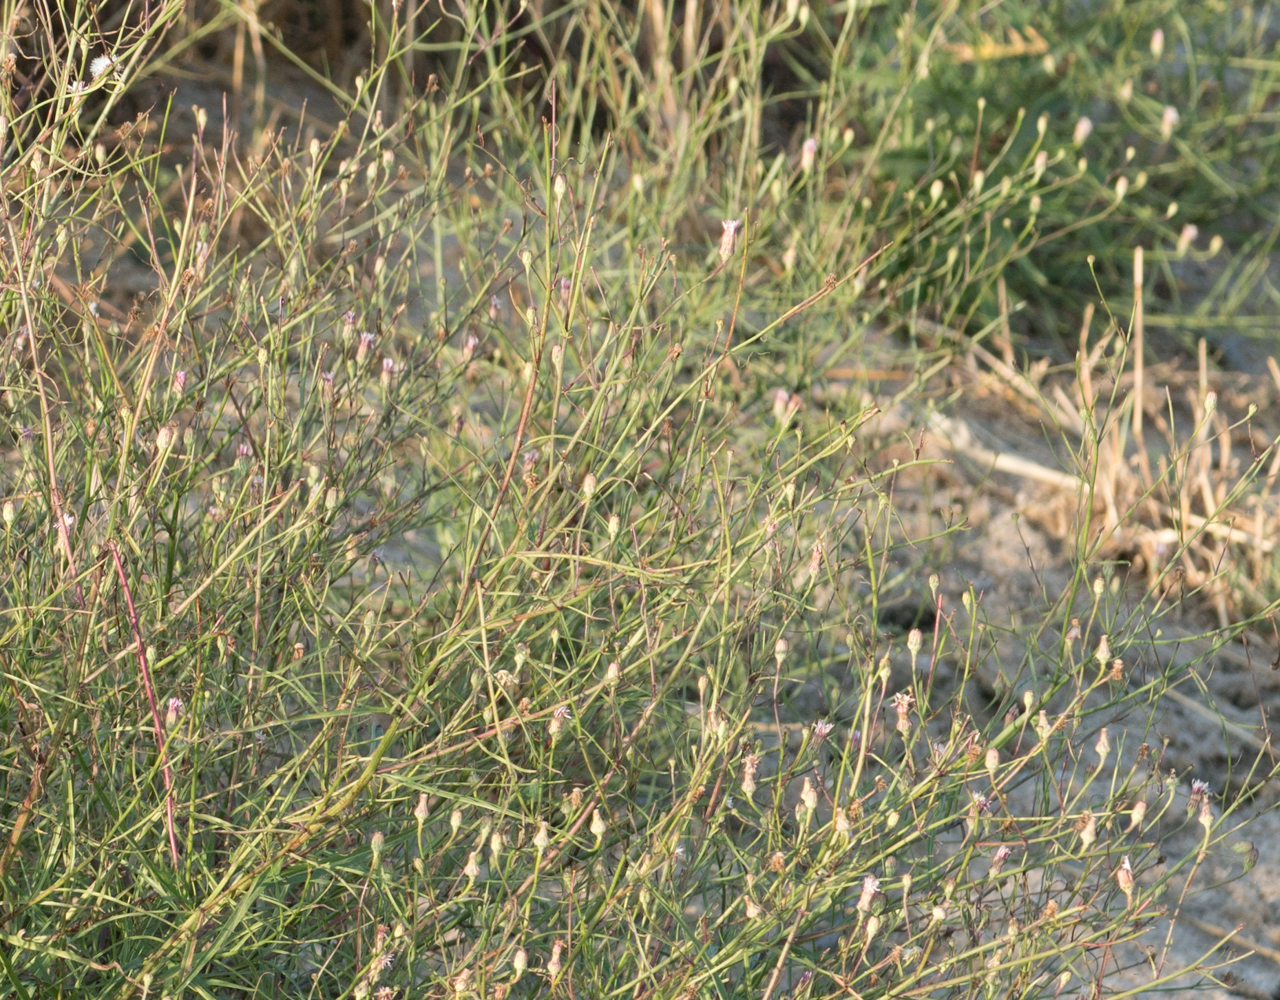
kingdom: Plantae
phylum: Tracheophyta
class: Magnoliopsida
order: Asterales
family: Asteraceae
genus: Malacothrix
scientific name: Malacothrix saxatilis
